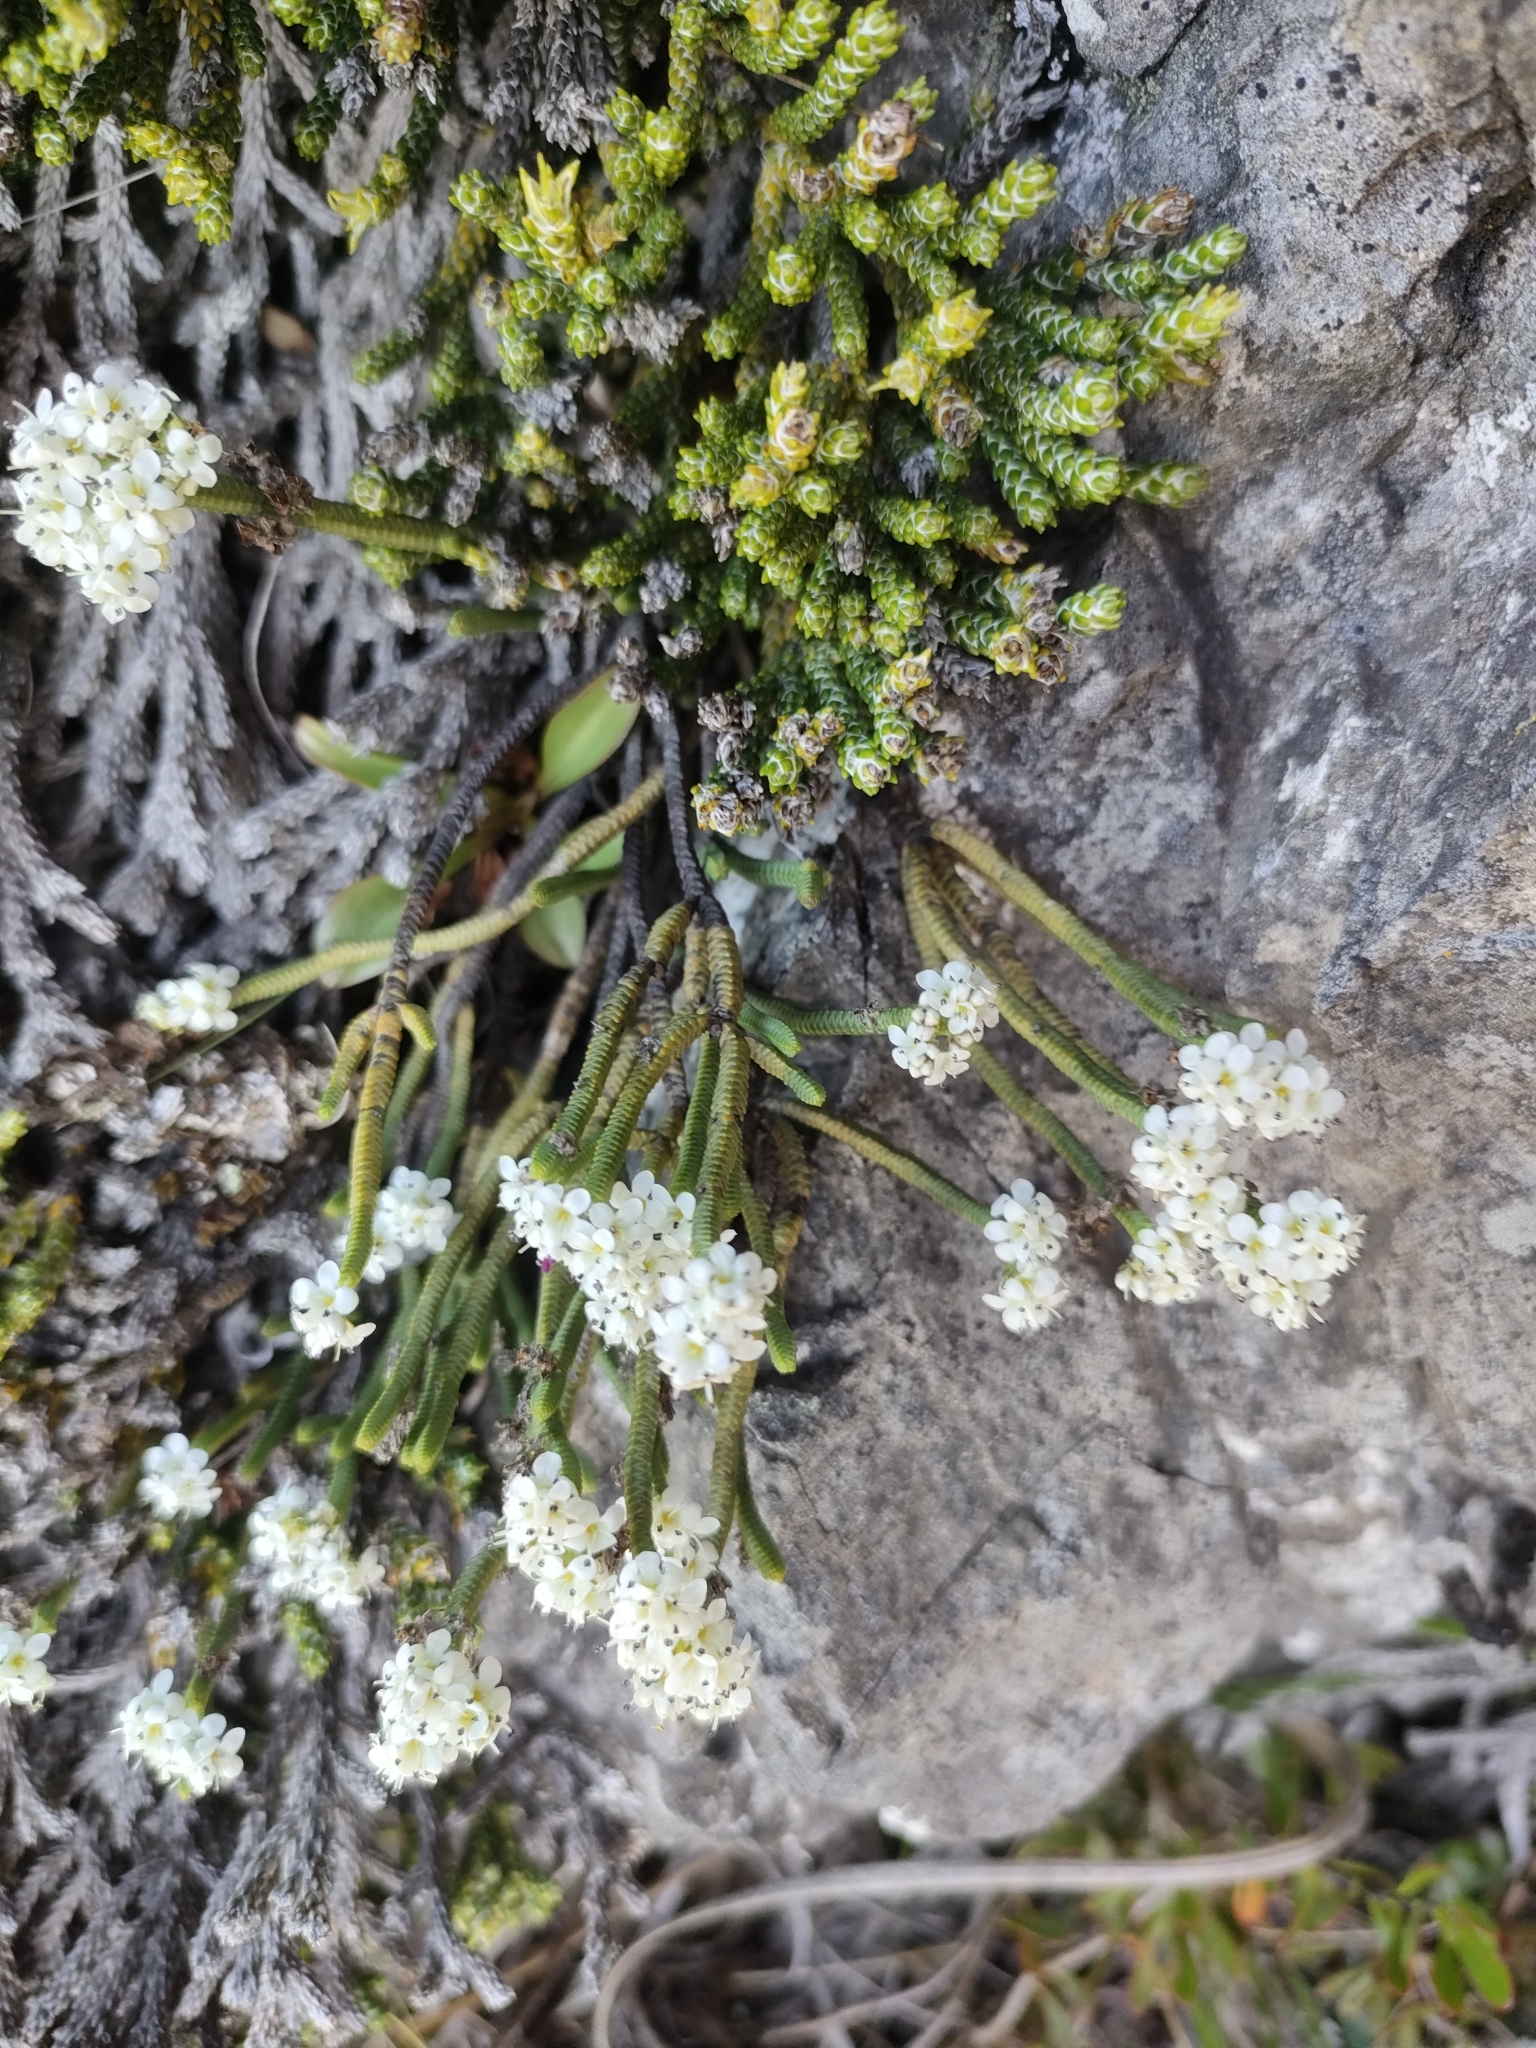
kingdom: Plantae
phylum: Tracheophyta
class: Magnoliopsida
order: Lamiales
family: Plantaginaceae
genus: Veronica
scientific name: Veronica tetrasticha
